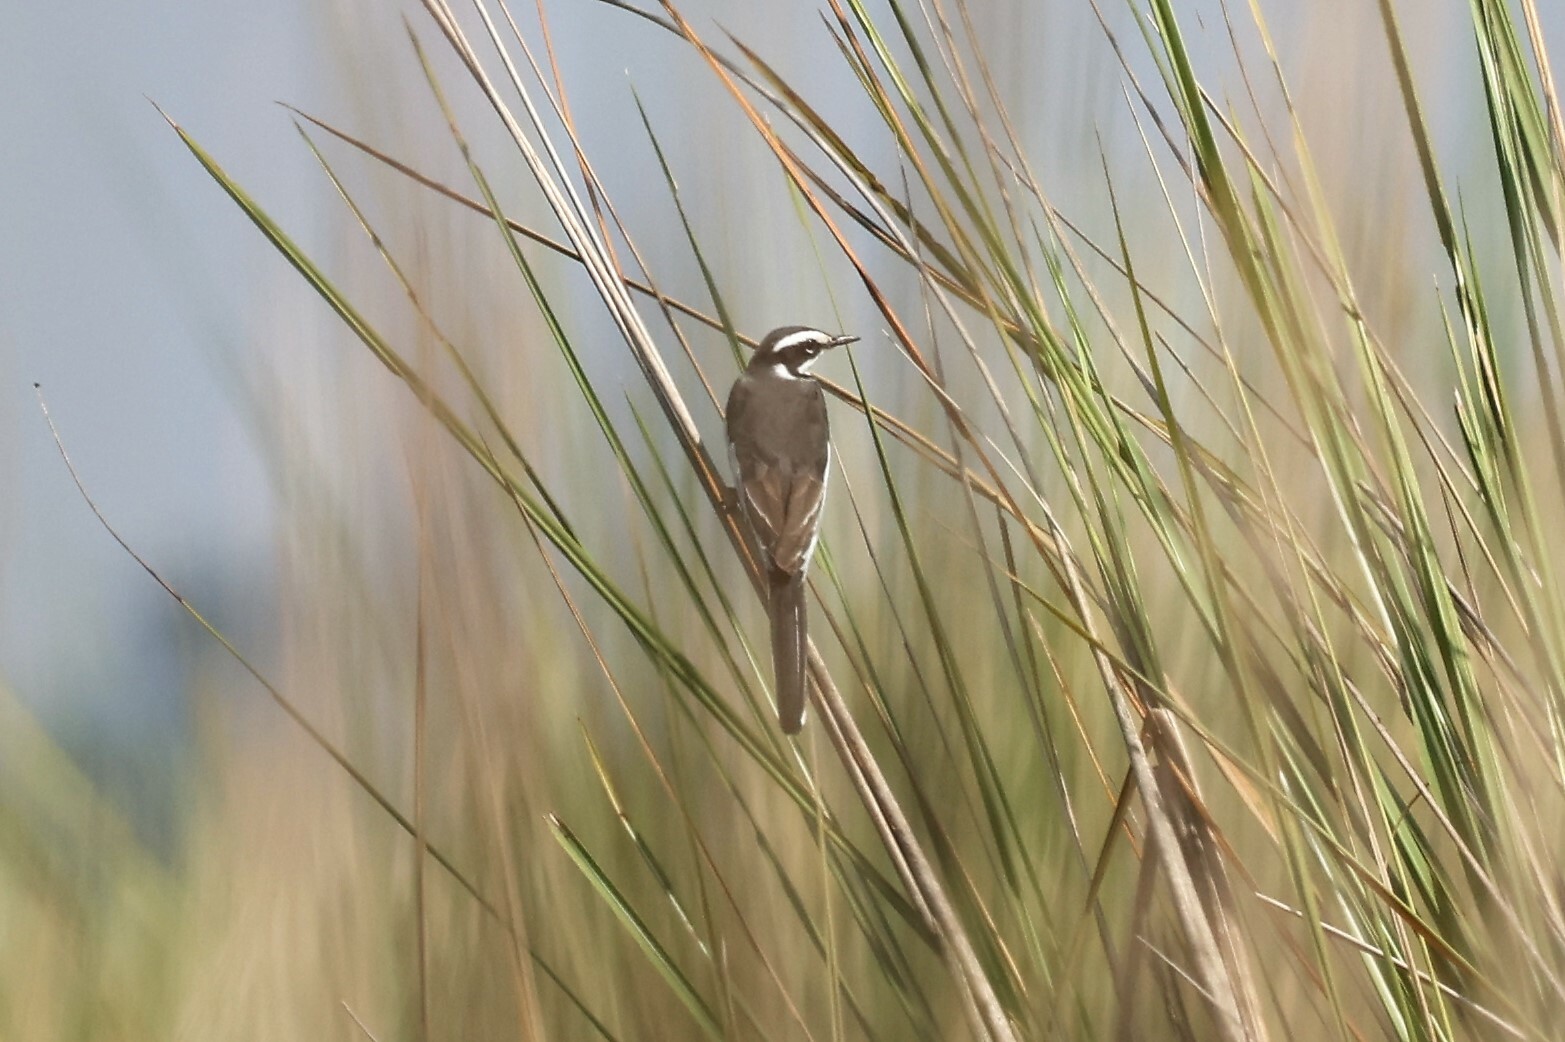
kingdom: Animalia
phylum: Chordata
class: Aves
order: Passeriformes
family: Motacillidae
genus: Motacilla
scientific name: Motacilla aguimp
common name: African pied wagtail
